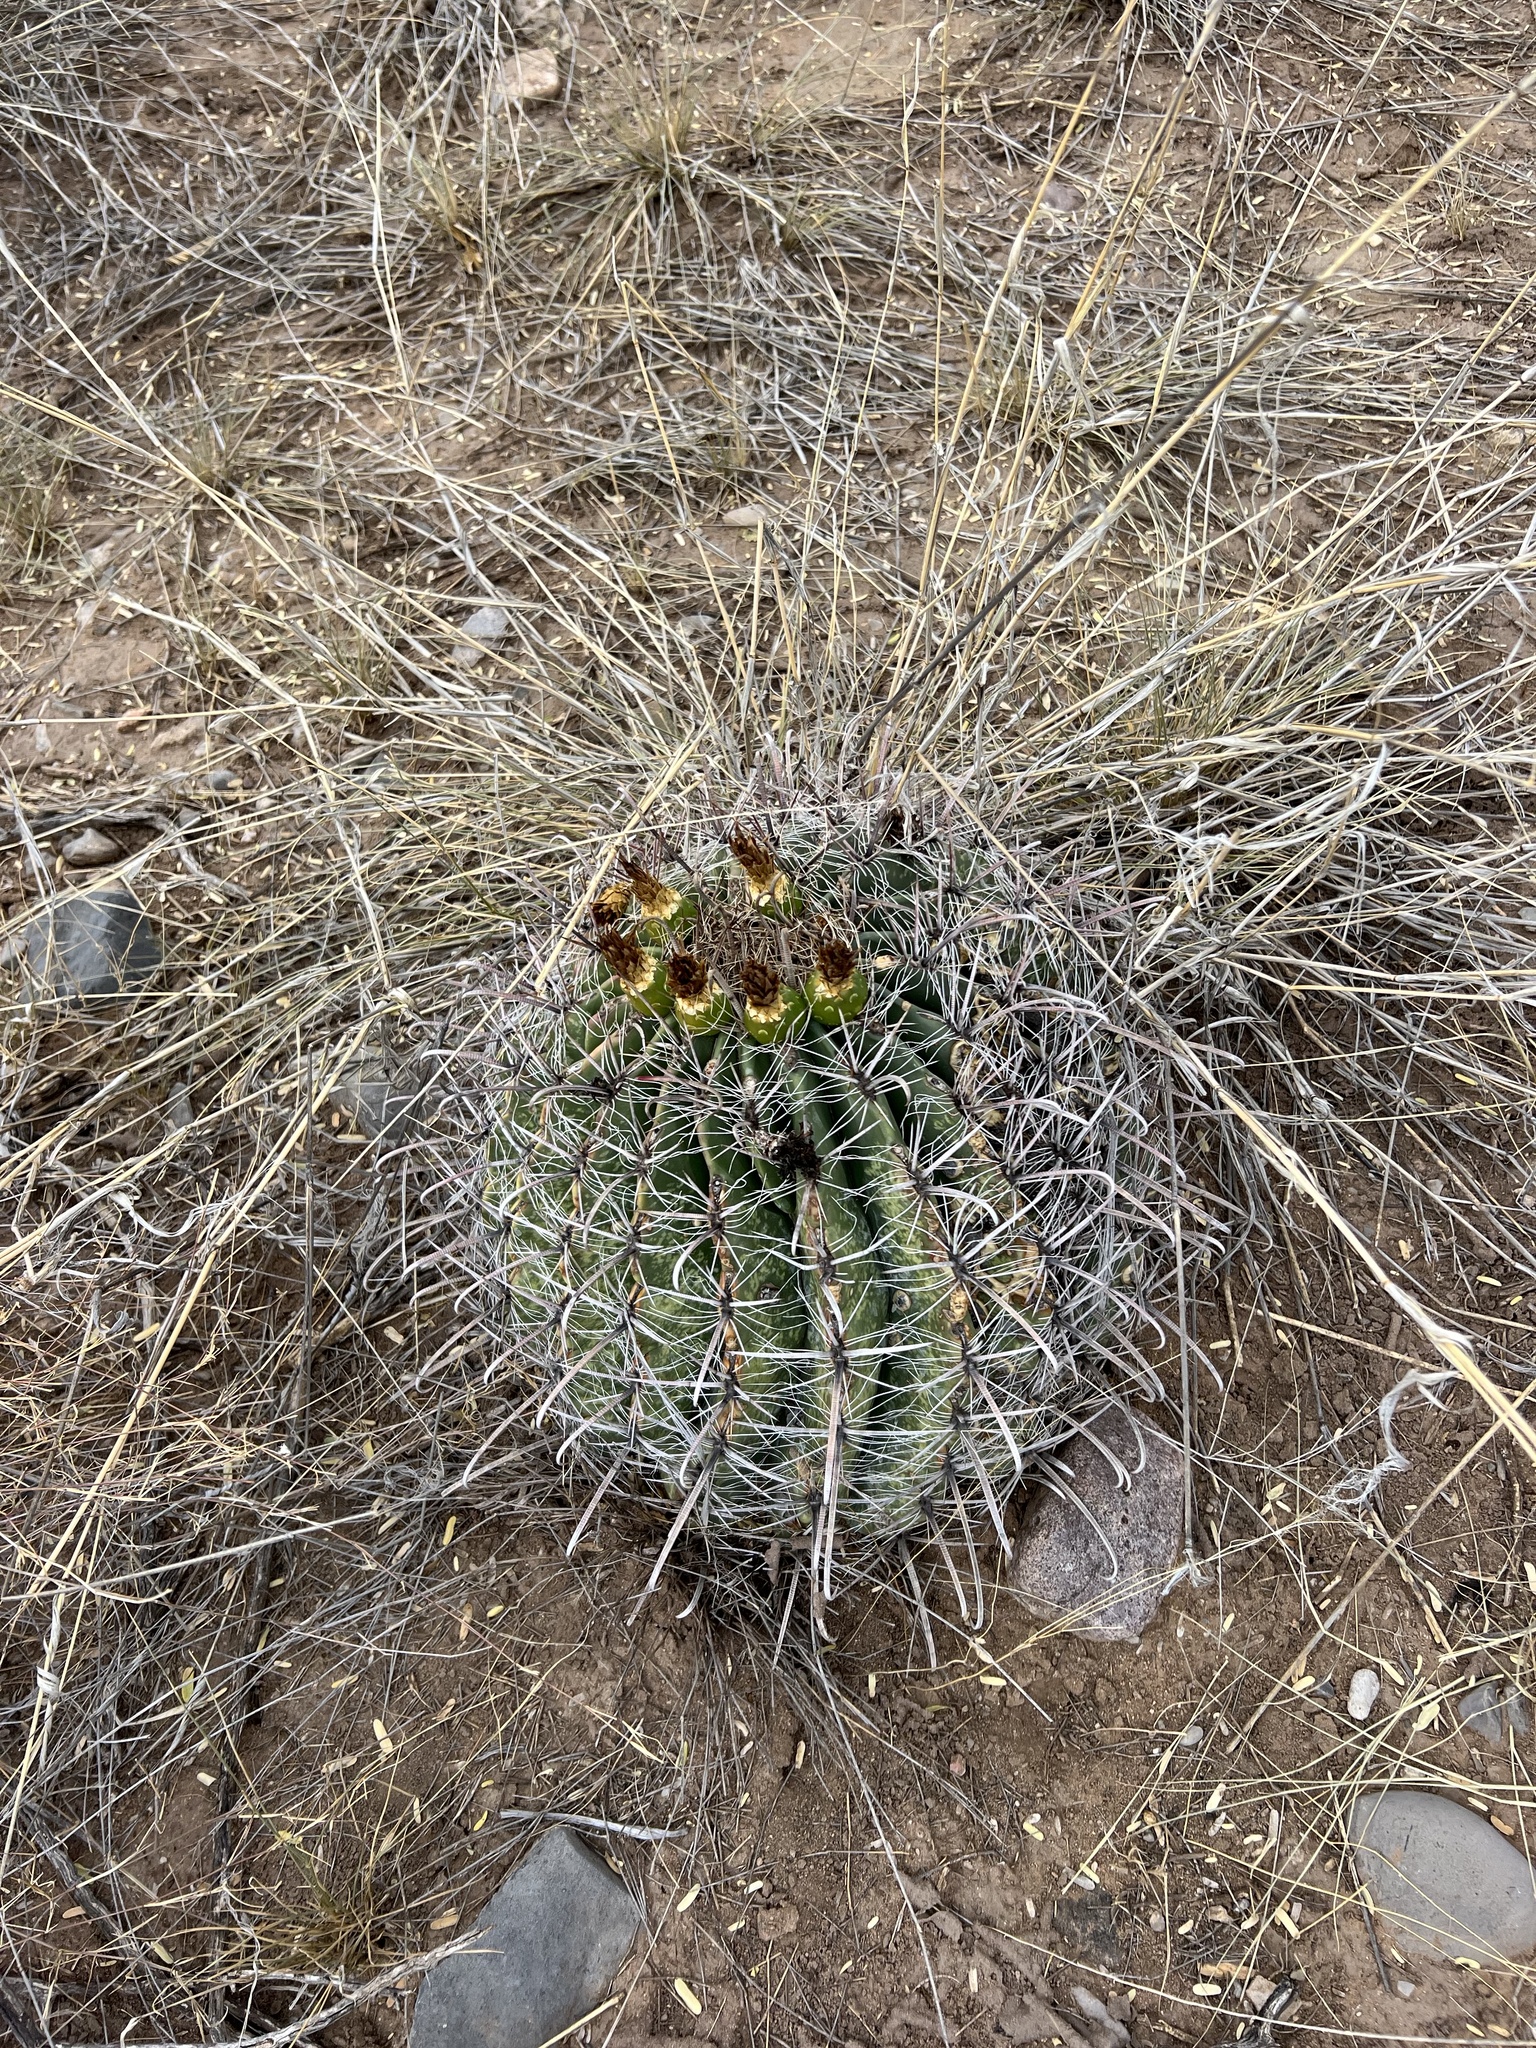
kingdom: Plantae
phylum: Tracheophyta
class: Magnoliopsida
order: Caryophyllales
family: Cactaceae
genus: Ferocactus
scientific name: Ferocactus wislizeni
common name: Candy barrel cactus
